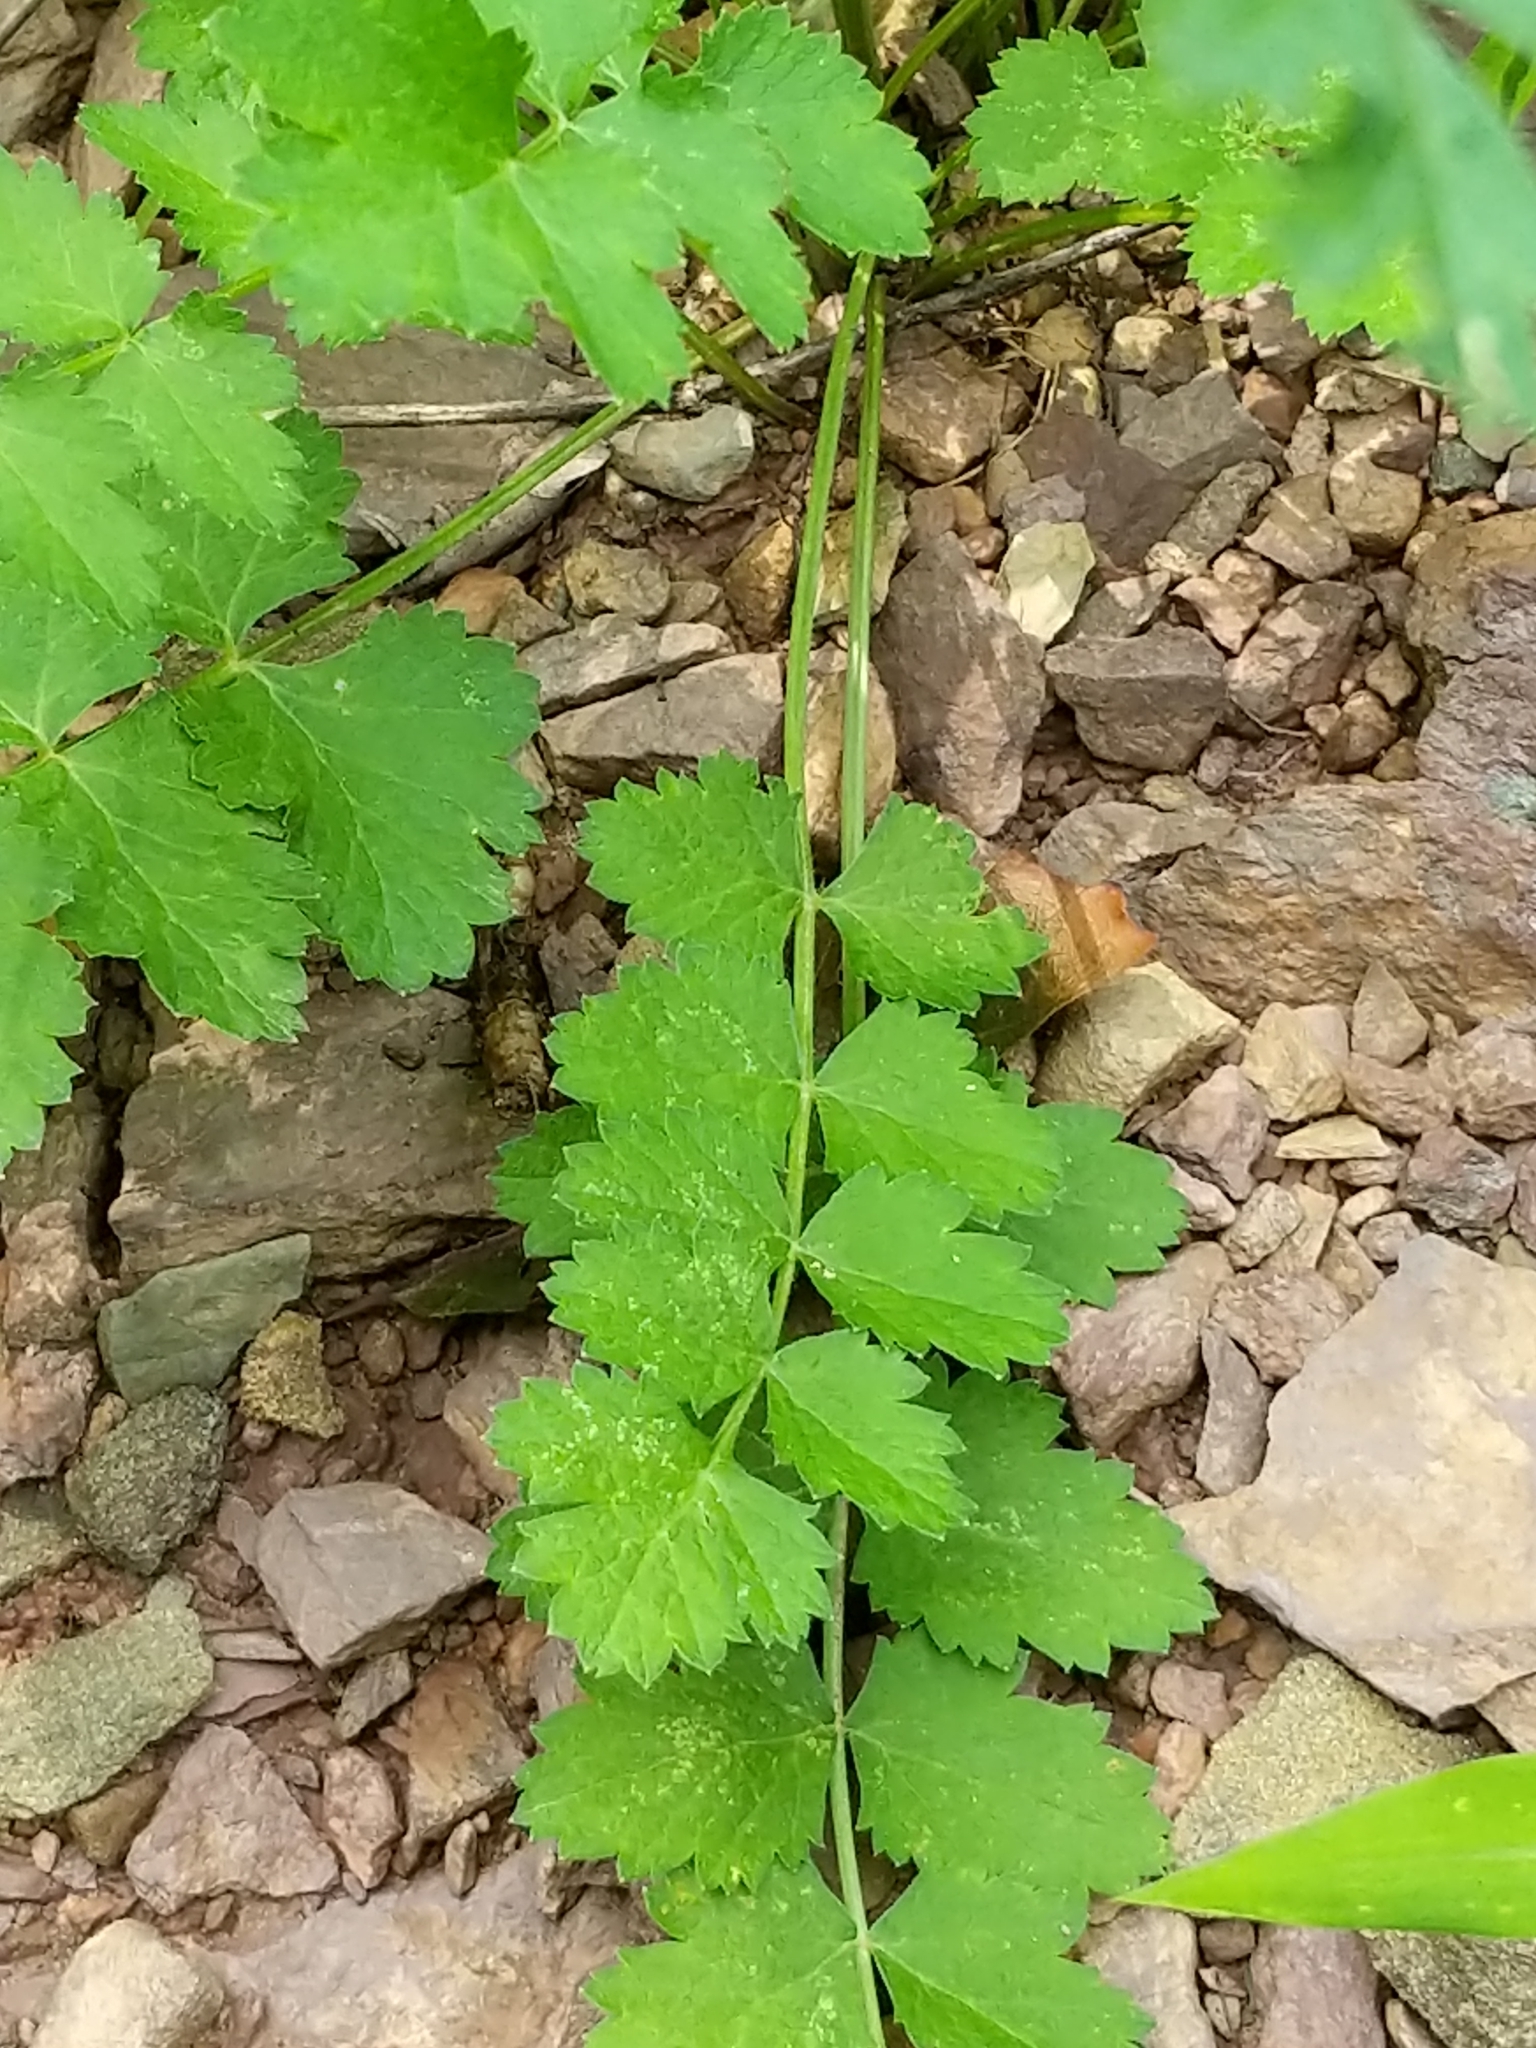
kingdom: Plantae
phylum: Tracheophyta
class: Magnoliopsida
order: Apiales
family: Apiaceae
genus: Pimpinella
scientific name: Pimpinella saxifraga
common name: Burnet-saxifrage
